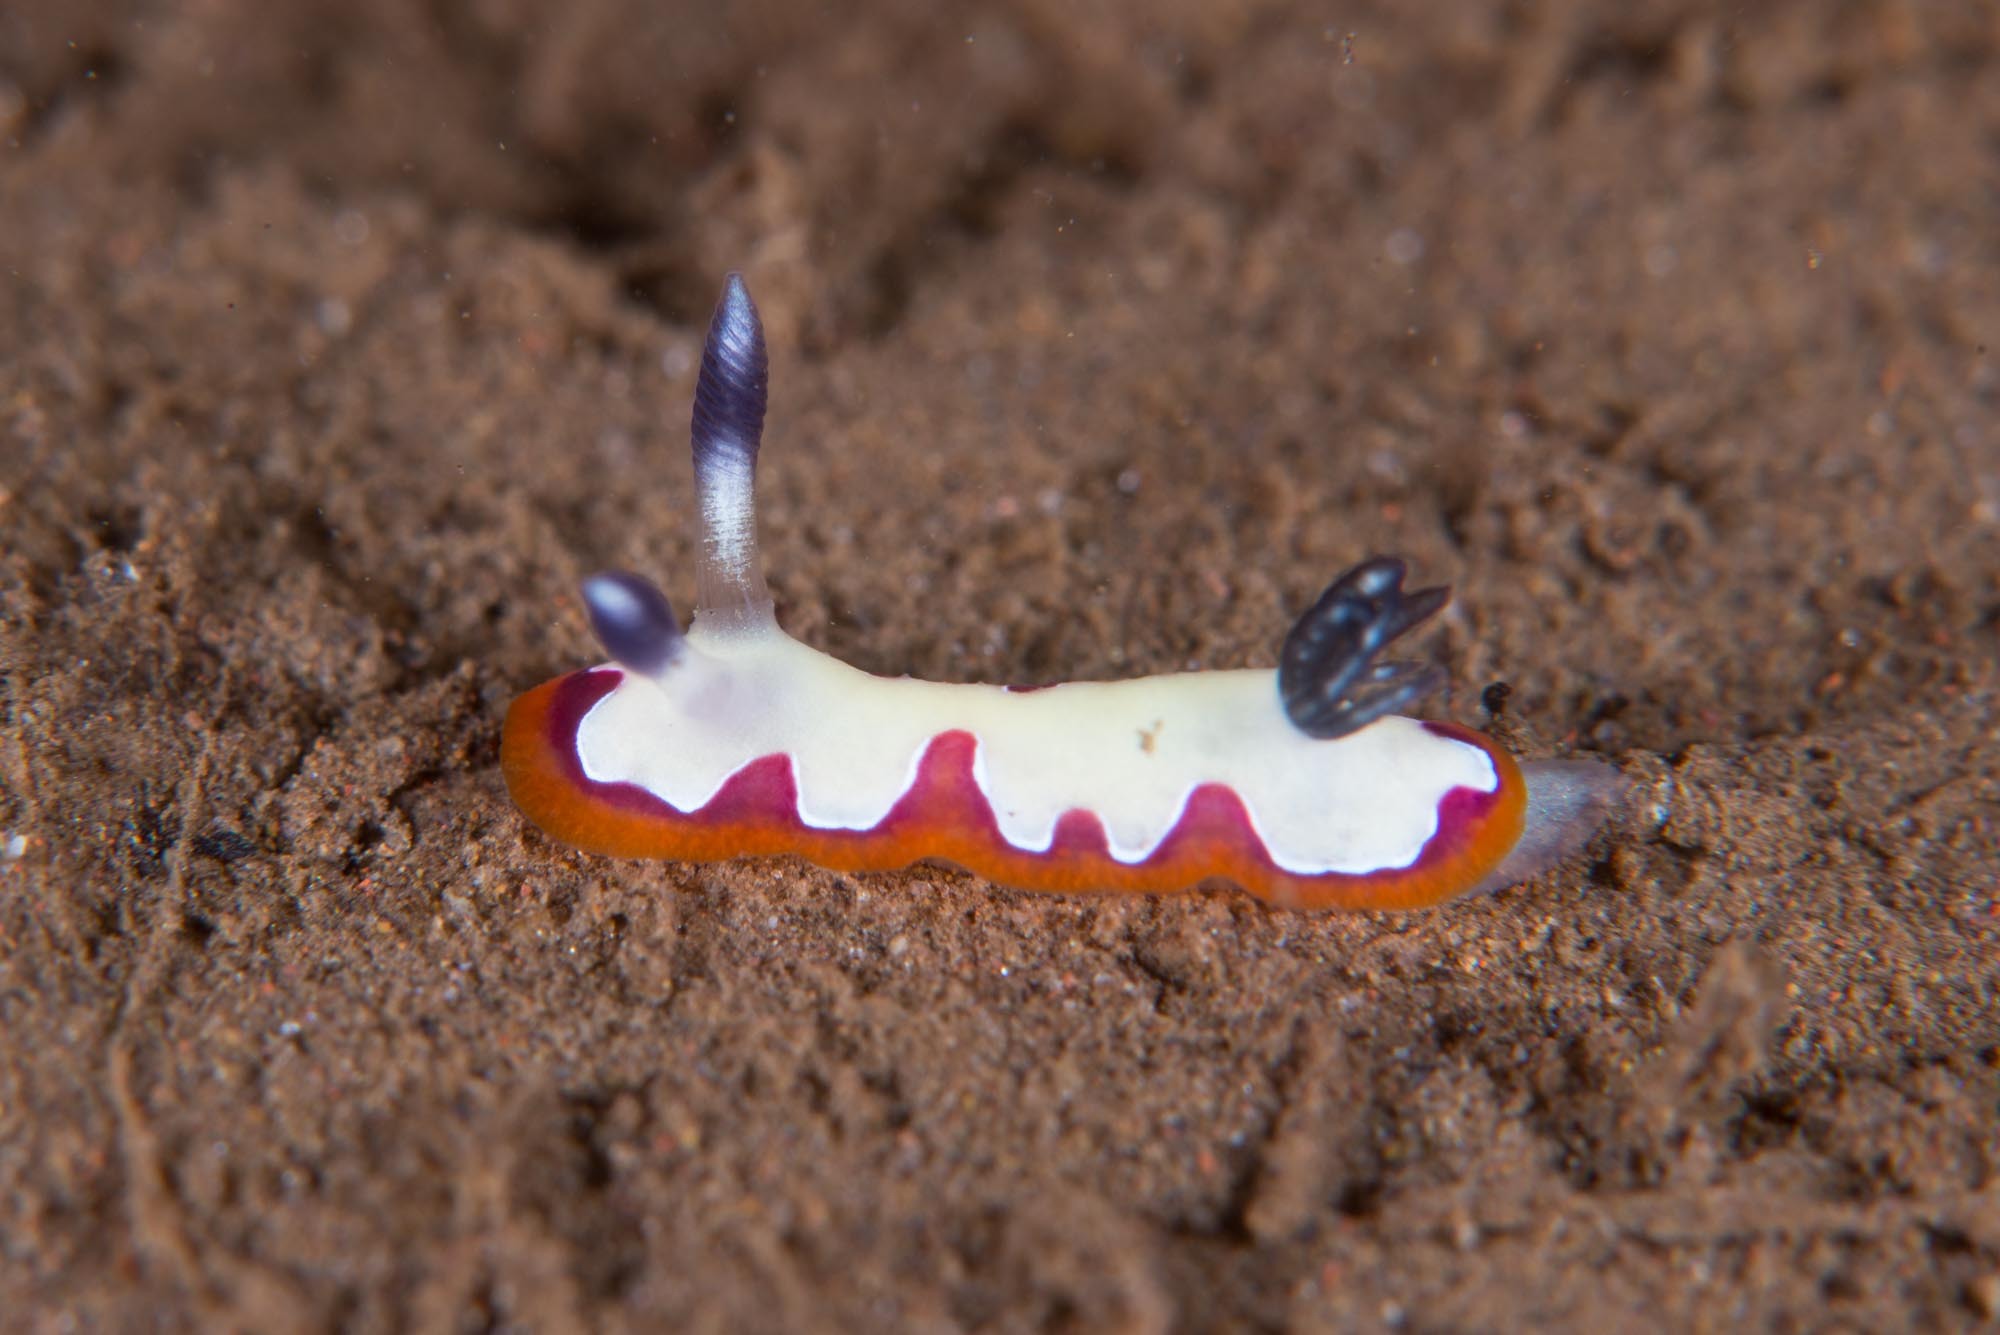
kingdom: Animalia
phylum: Mollusca
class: Gastropoda
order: Nudibranchia
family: Chromodorididae
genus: Goniobranchus
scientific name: Goniobranchus fidelis
